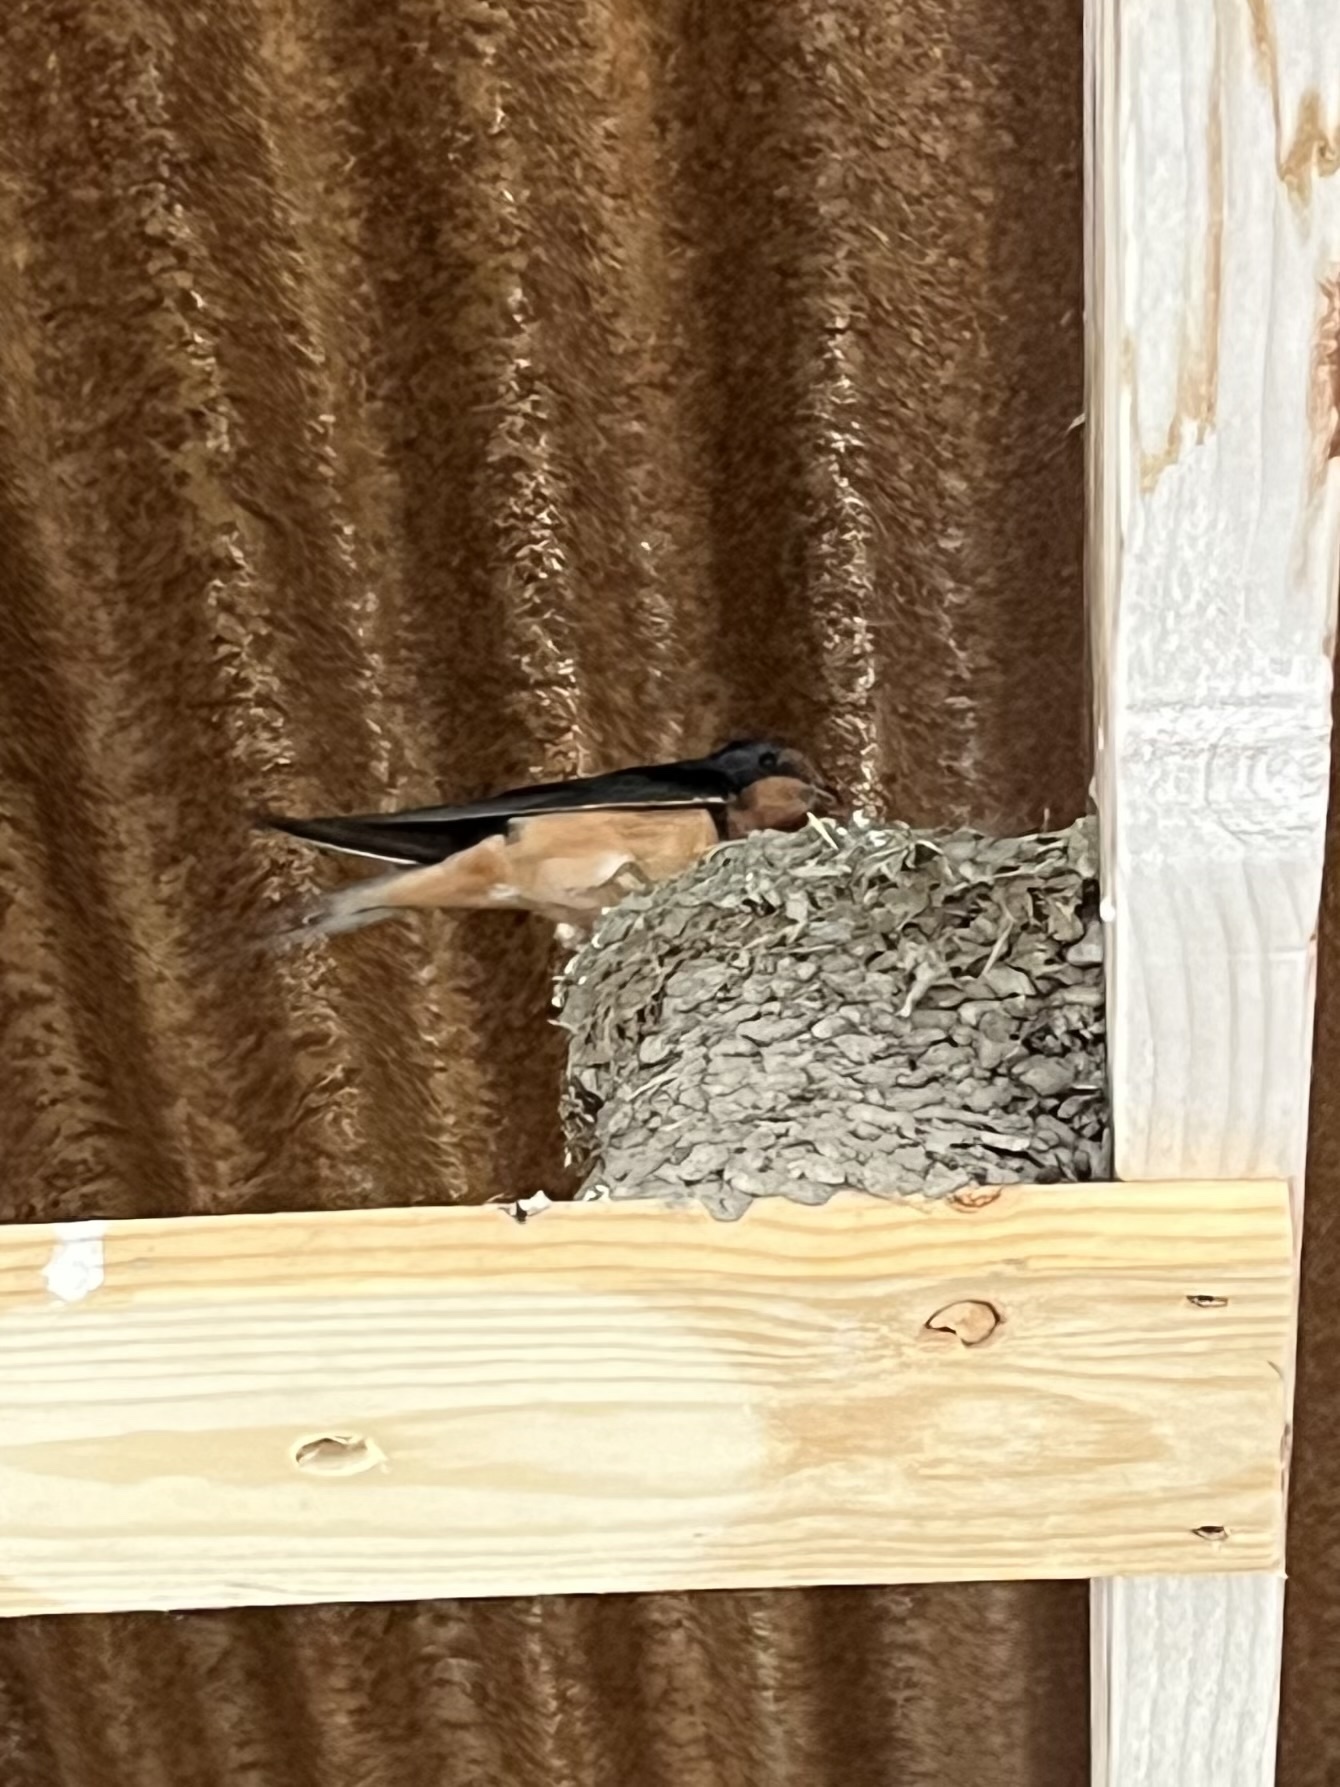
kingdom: Animalia
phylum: Chordata
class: Aves
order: Passeriformes
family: Hirundinidae
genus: Hirundo
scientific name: Hirundo rustica
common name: Barn swallow
